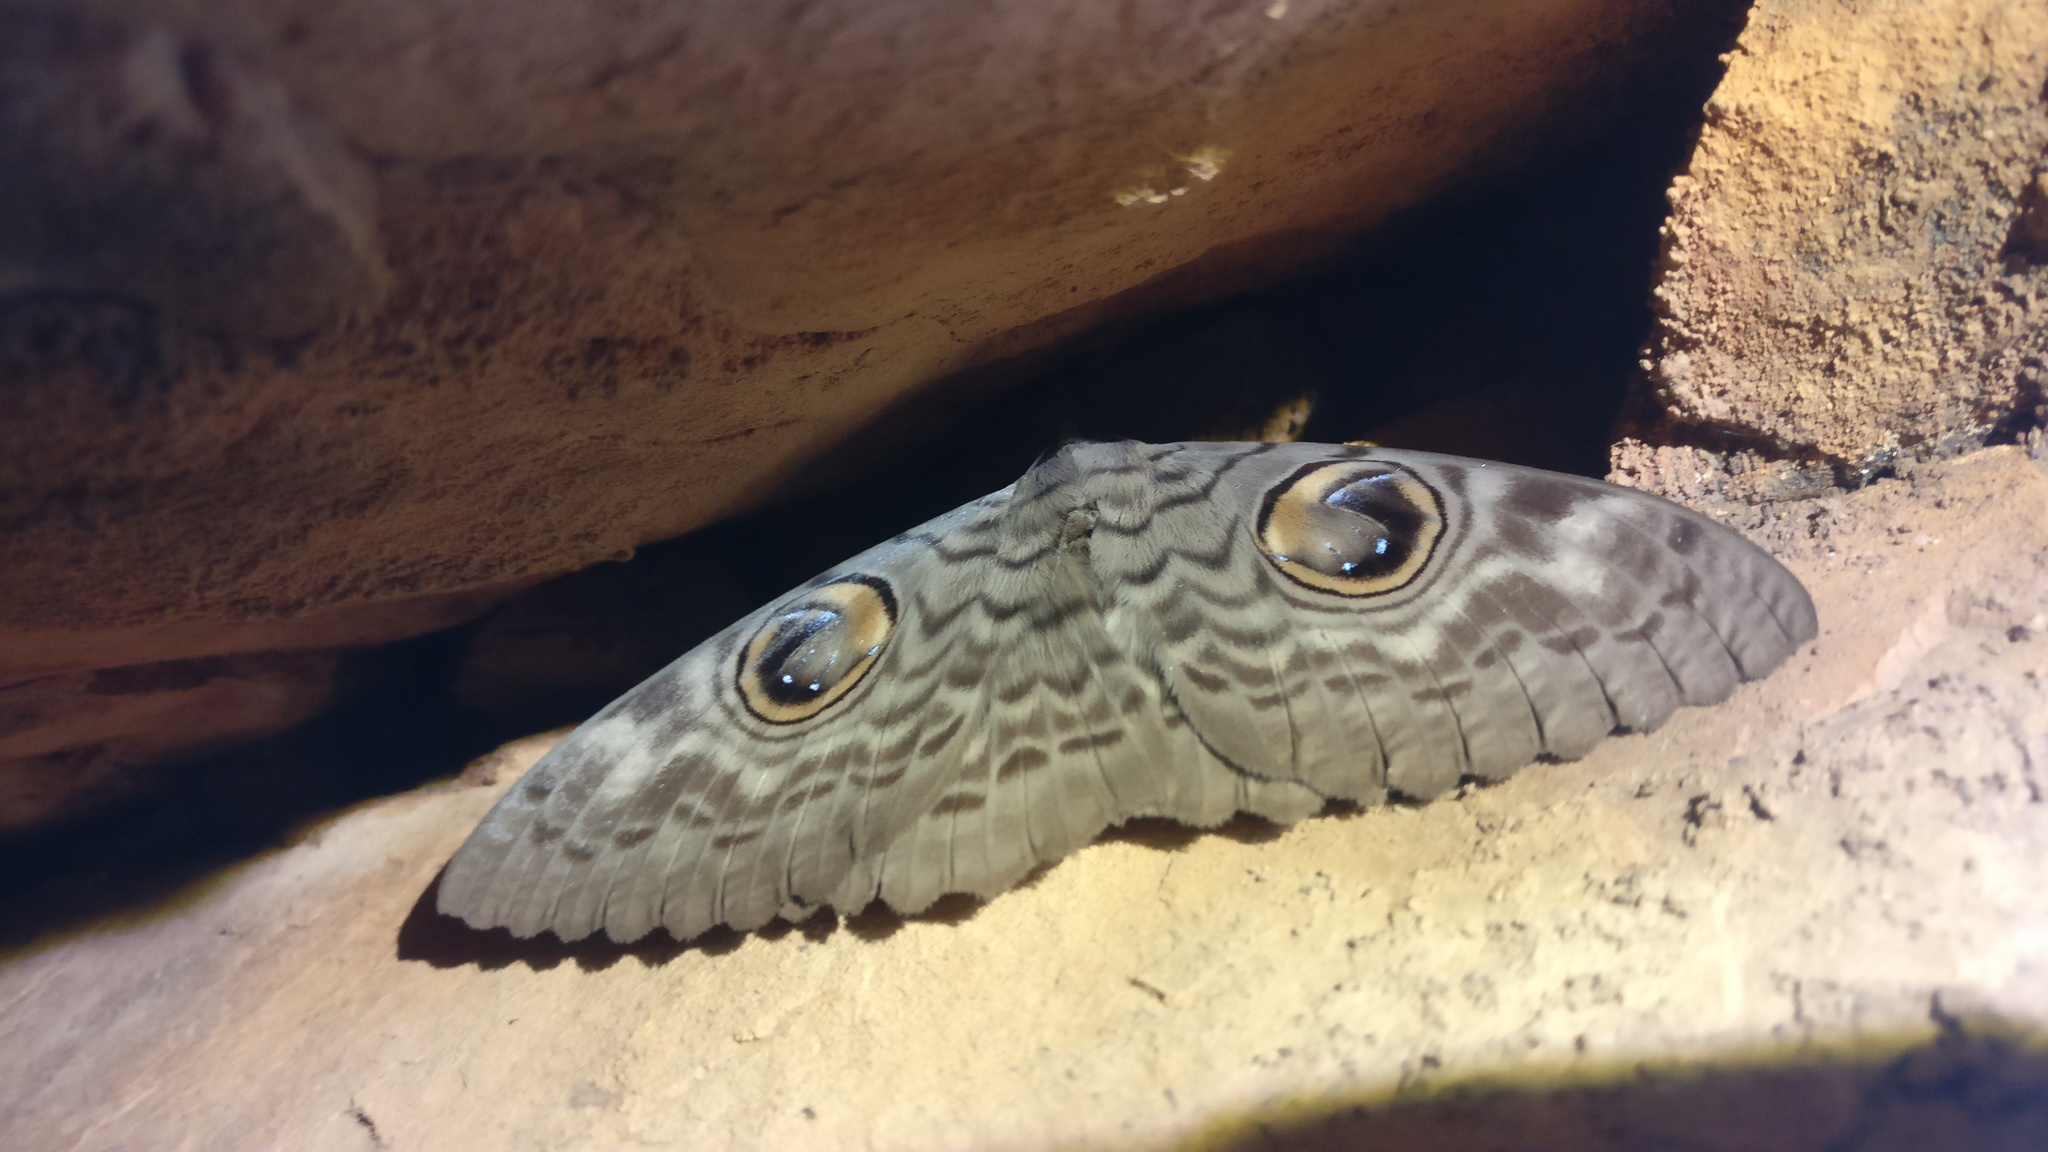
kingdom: Animalia
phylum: Arthropoda
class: Insecta
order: Lepidoptera
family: Erebidae
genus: Erebus
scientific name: Erebus macrops
